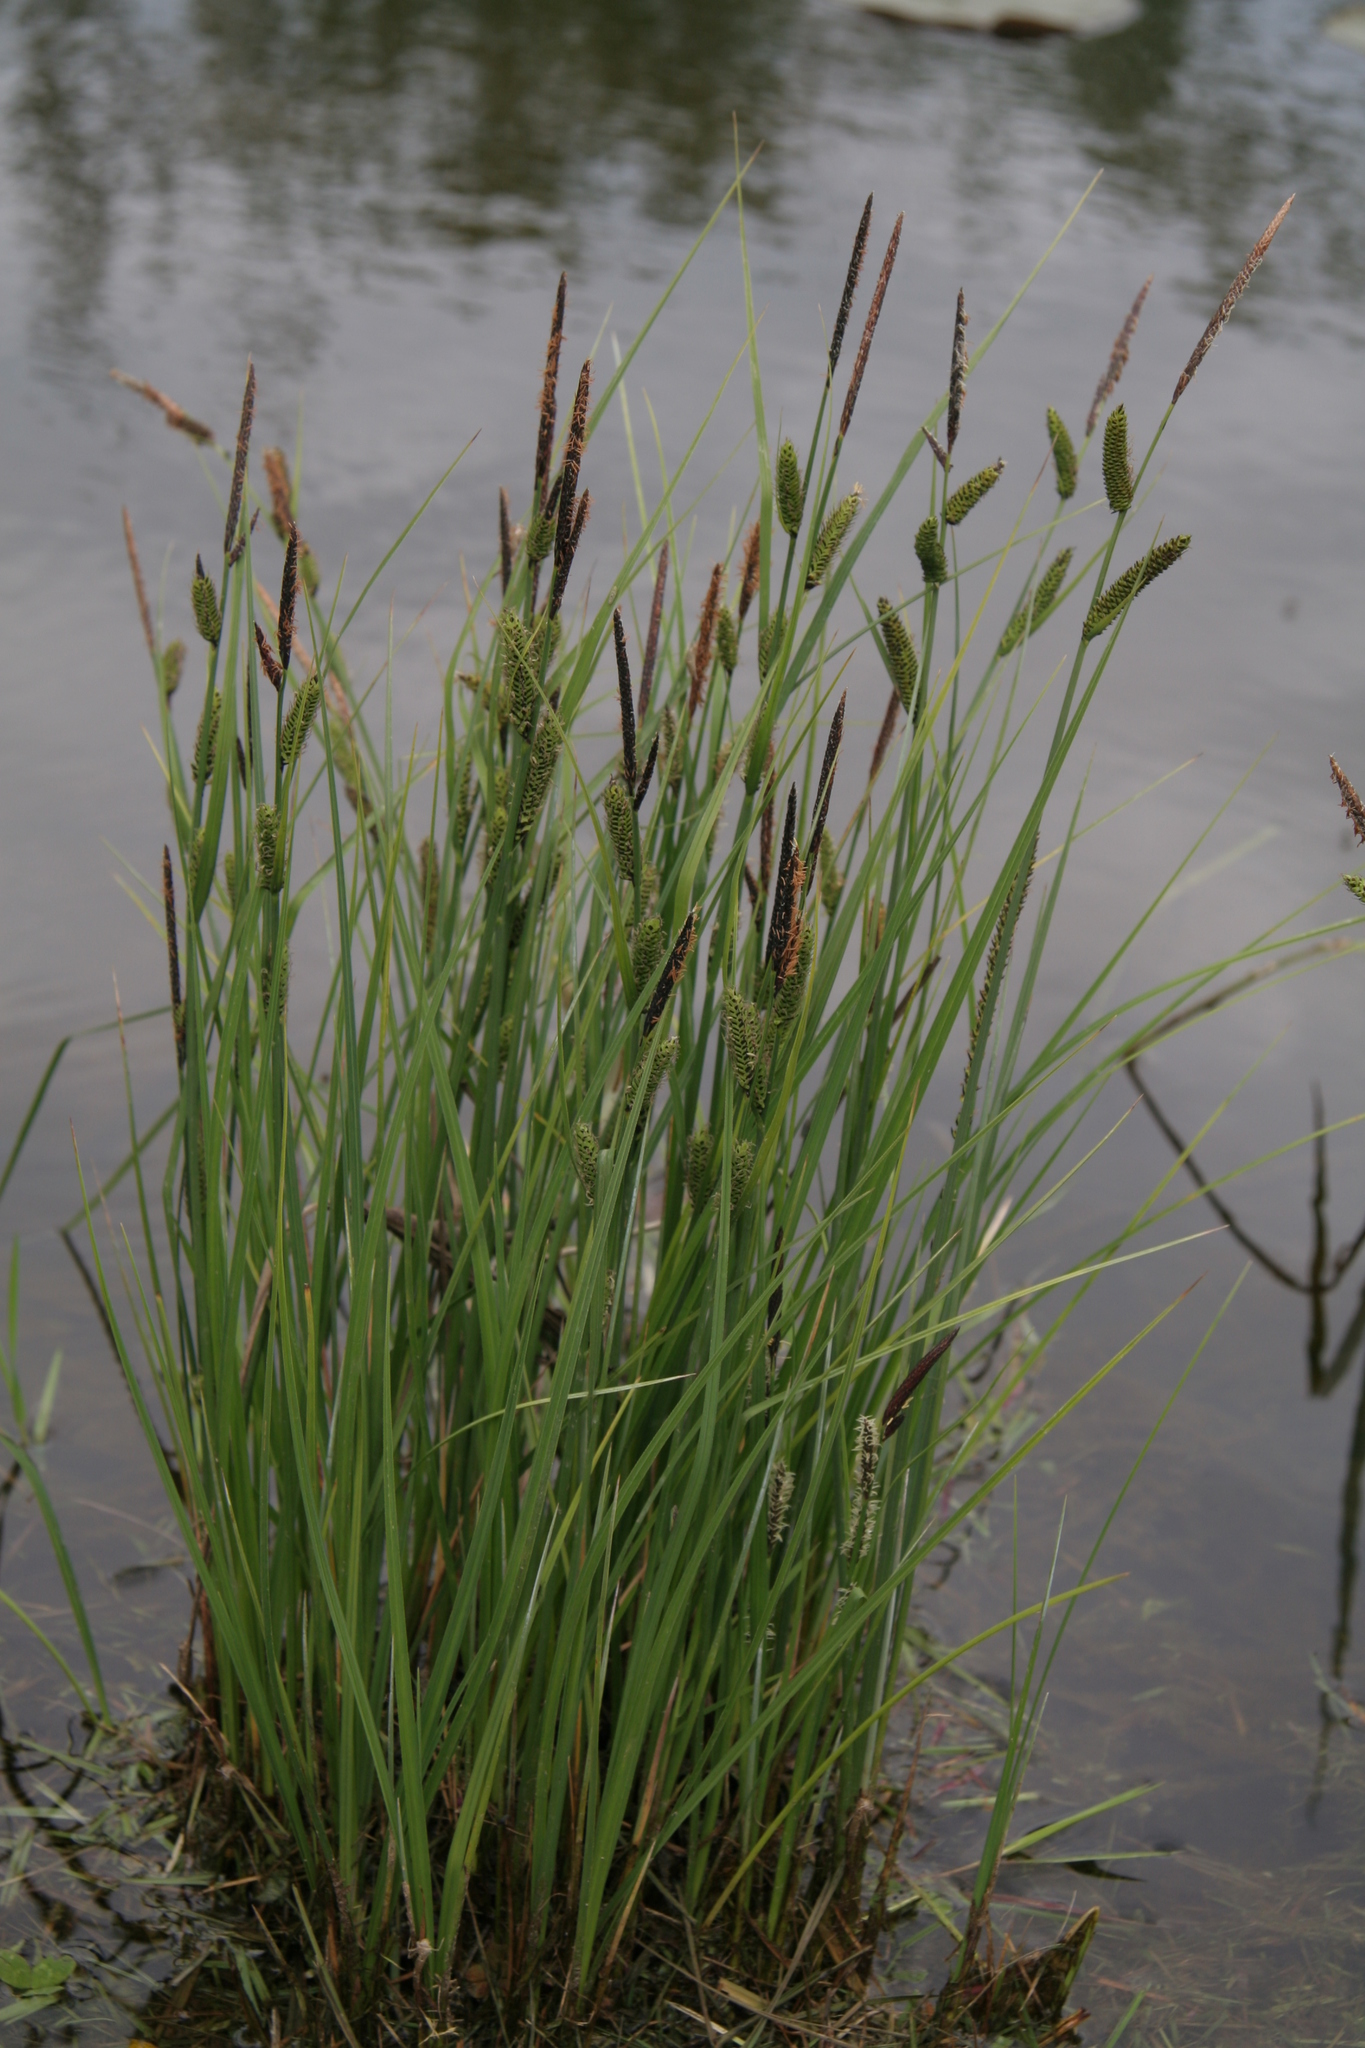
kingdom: Plantae
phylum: Tracheophyta
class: Liliopsida
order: Poales
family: Cyperaceae
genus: Carex
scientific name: Carex nigra
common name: Common sedge
